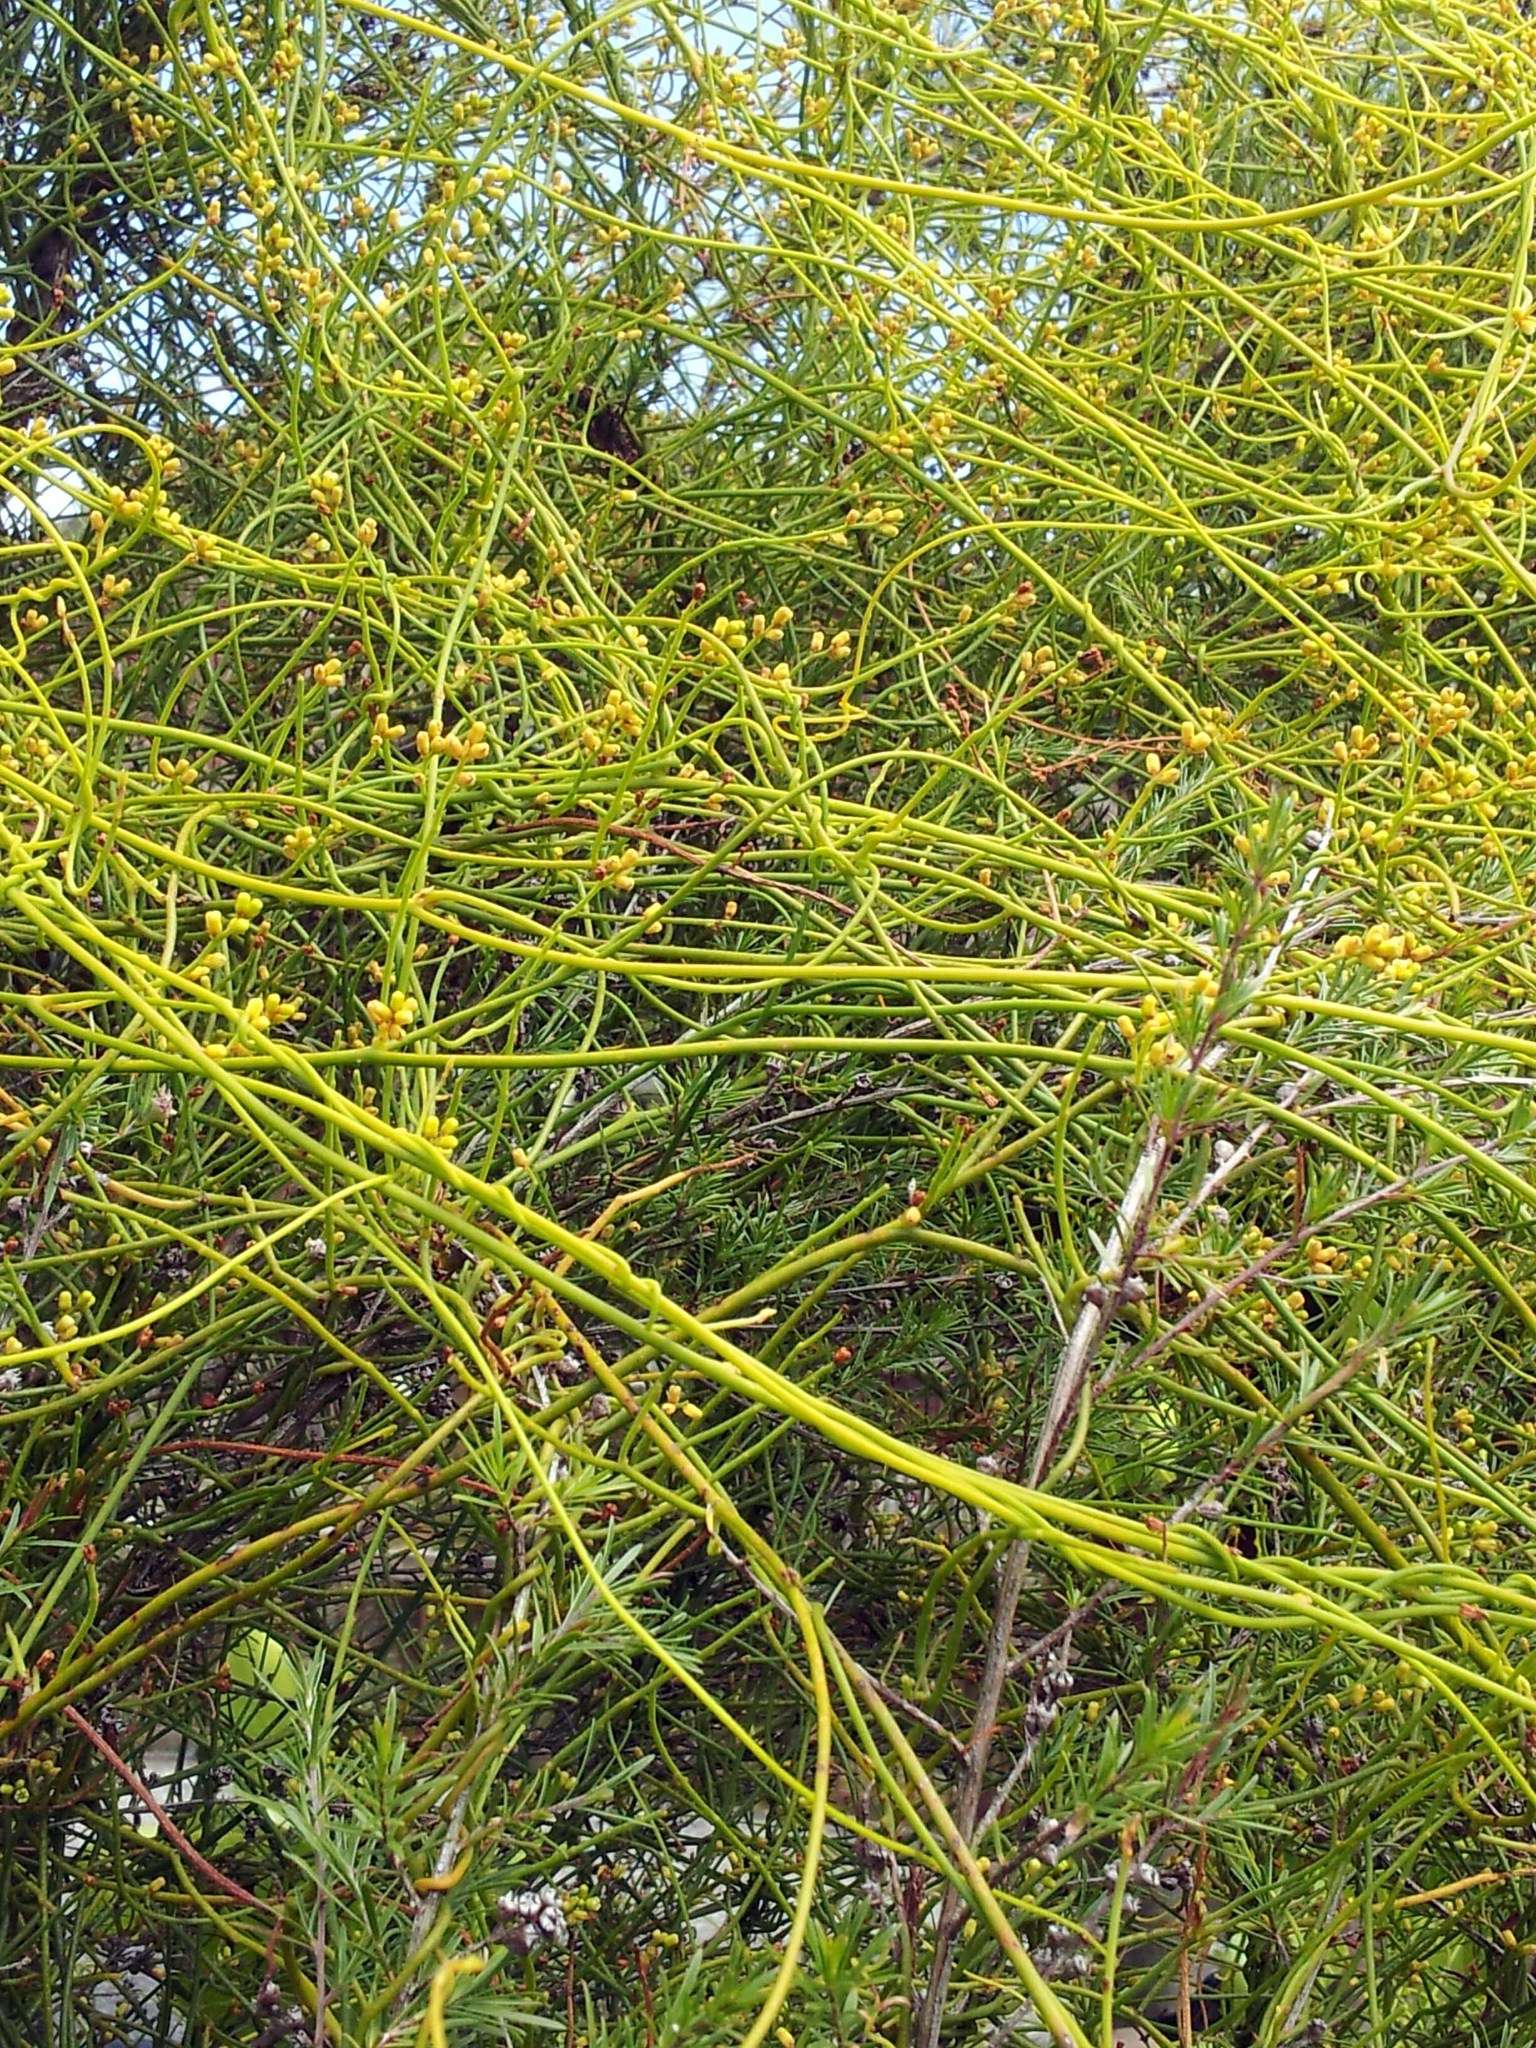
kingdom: Plantae
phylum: Tracheophyta
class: Magnoliopsida
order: Laurales
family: Lauraceae
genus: Cassytha
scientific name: Cassytha paniculata
